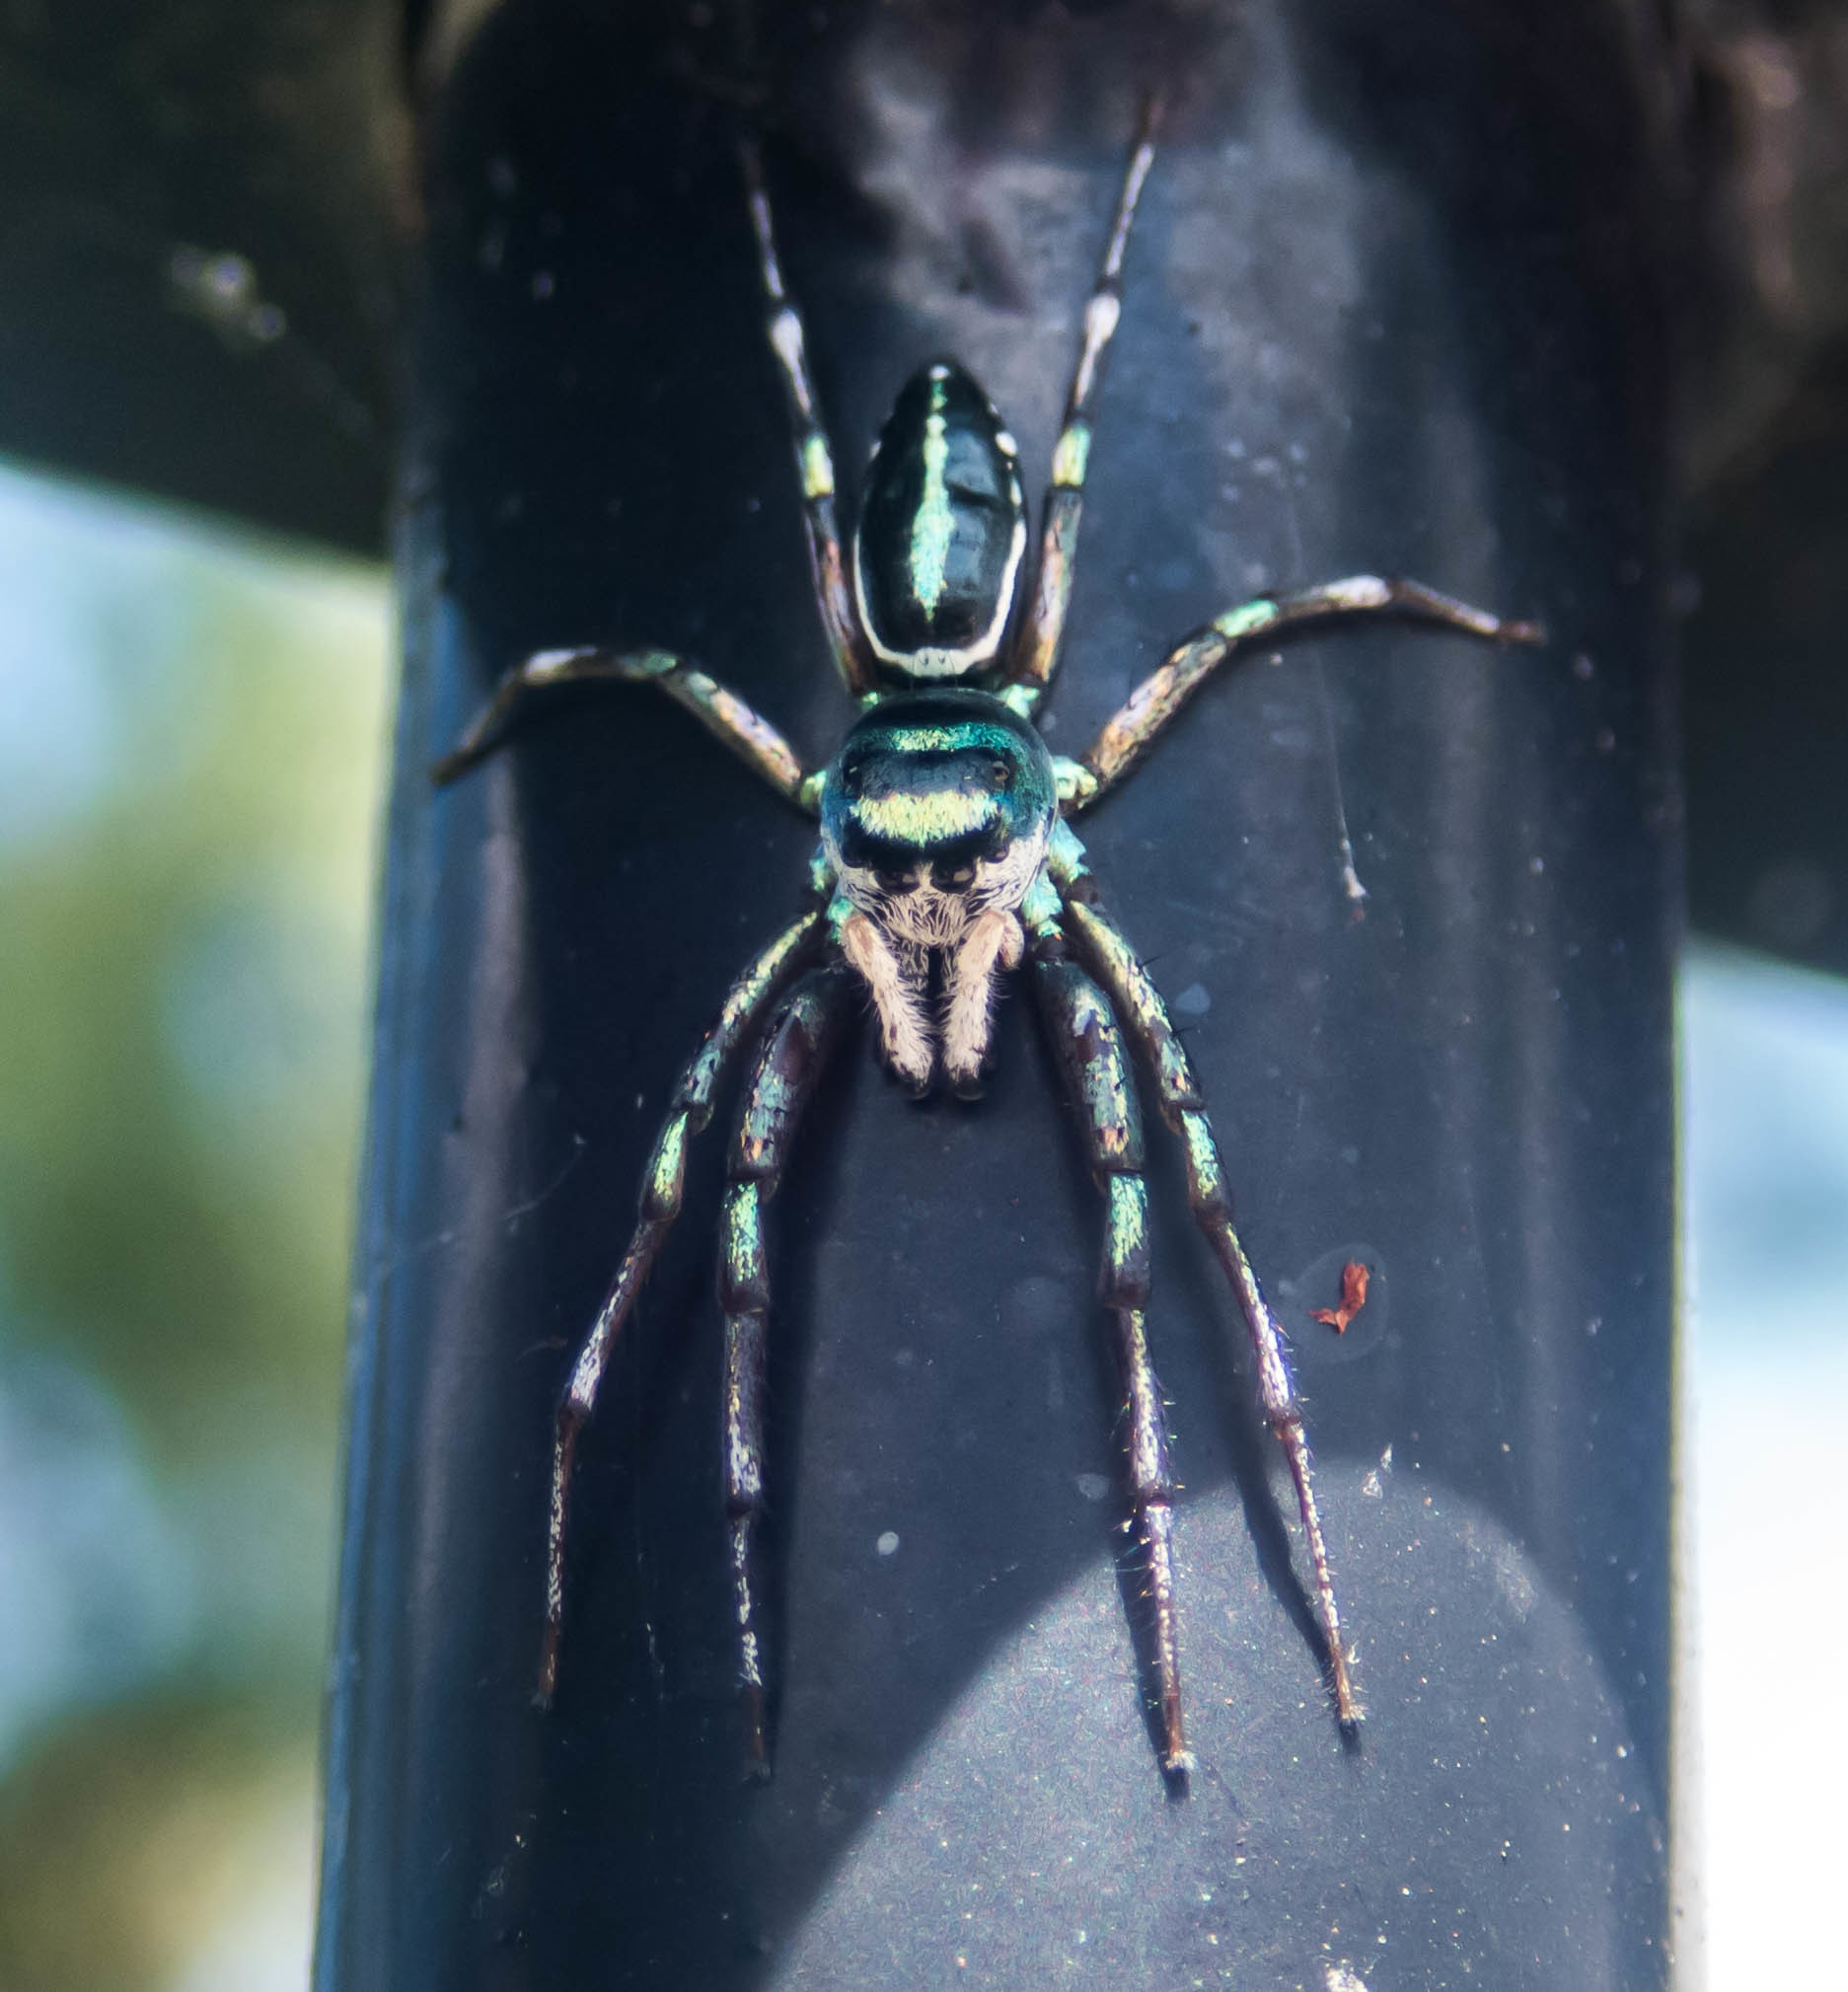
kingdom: Animalia
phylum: Arthropoda
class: Arachnida
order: Araneae
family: Salticidae
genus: Cosmophasis
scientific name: Cosmophasis thalassina
